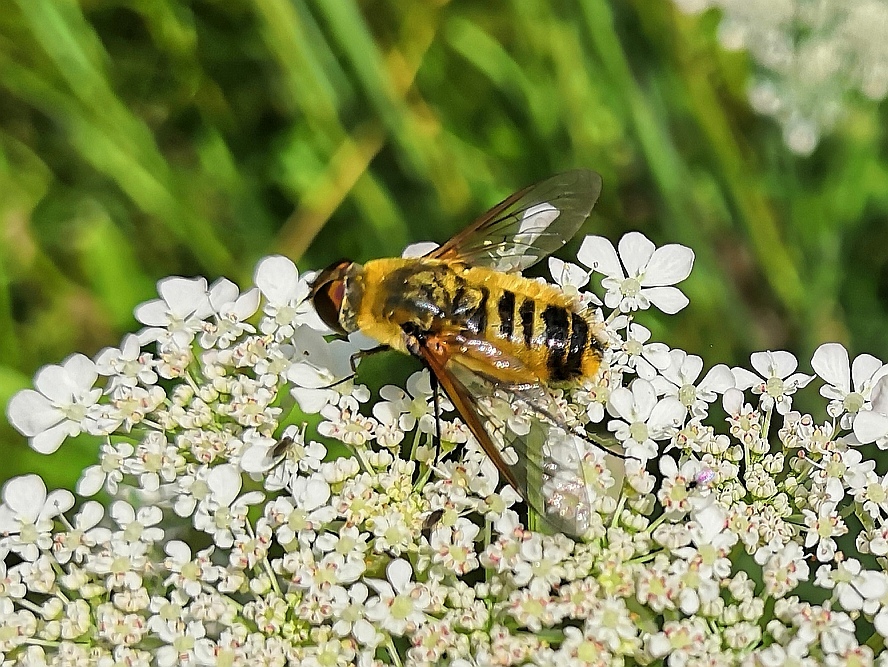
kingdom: Animalia
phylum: Arthropoda
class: Insecta
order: Diptera
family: Bombyliidae
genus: Villa
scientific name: Villa hottentotta
